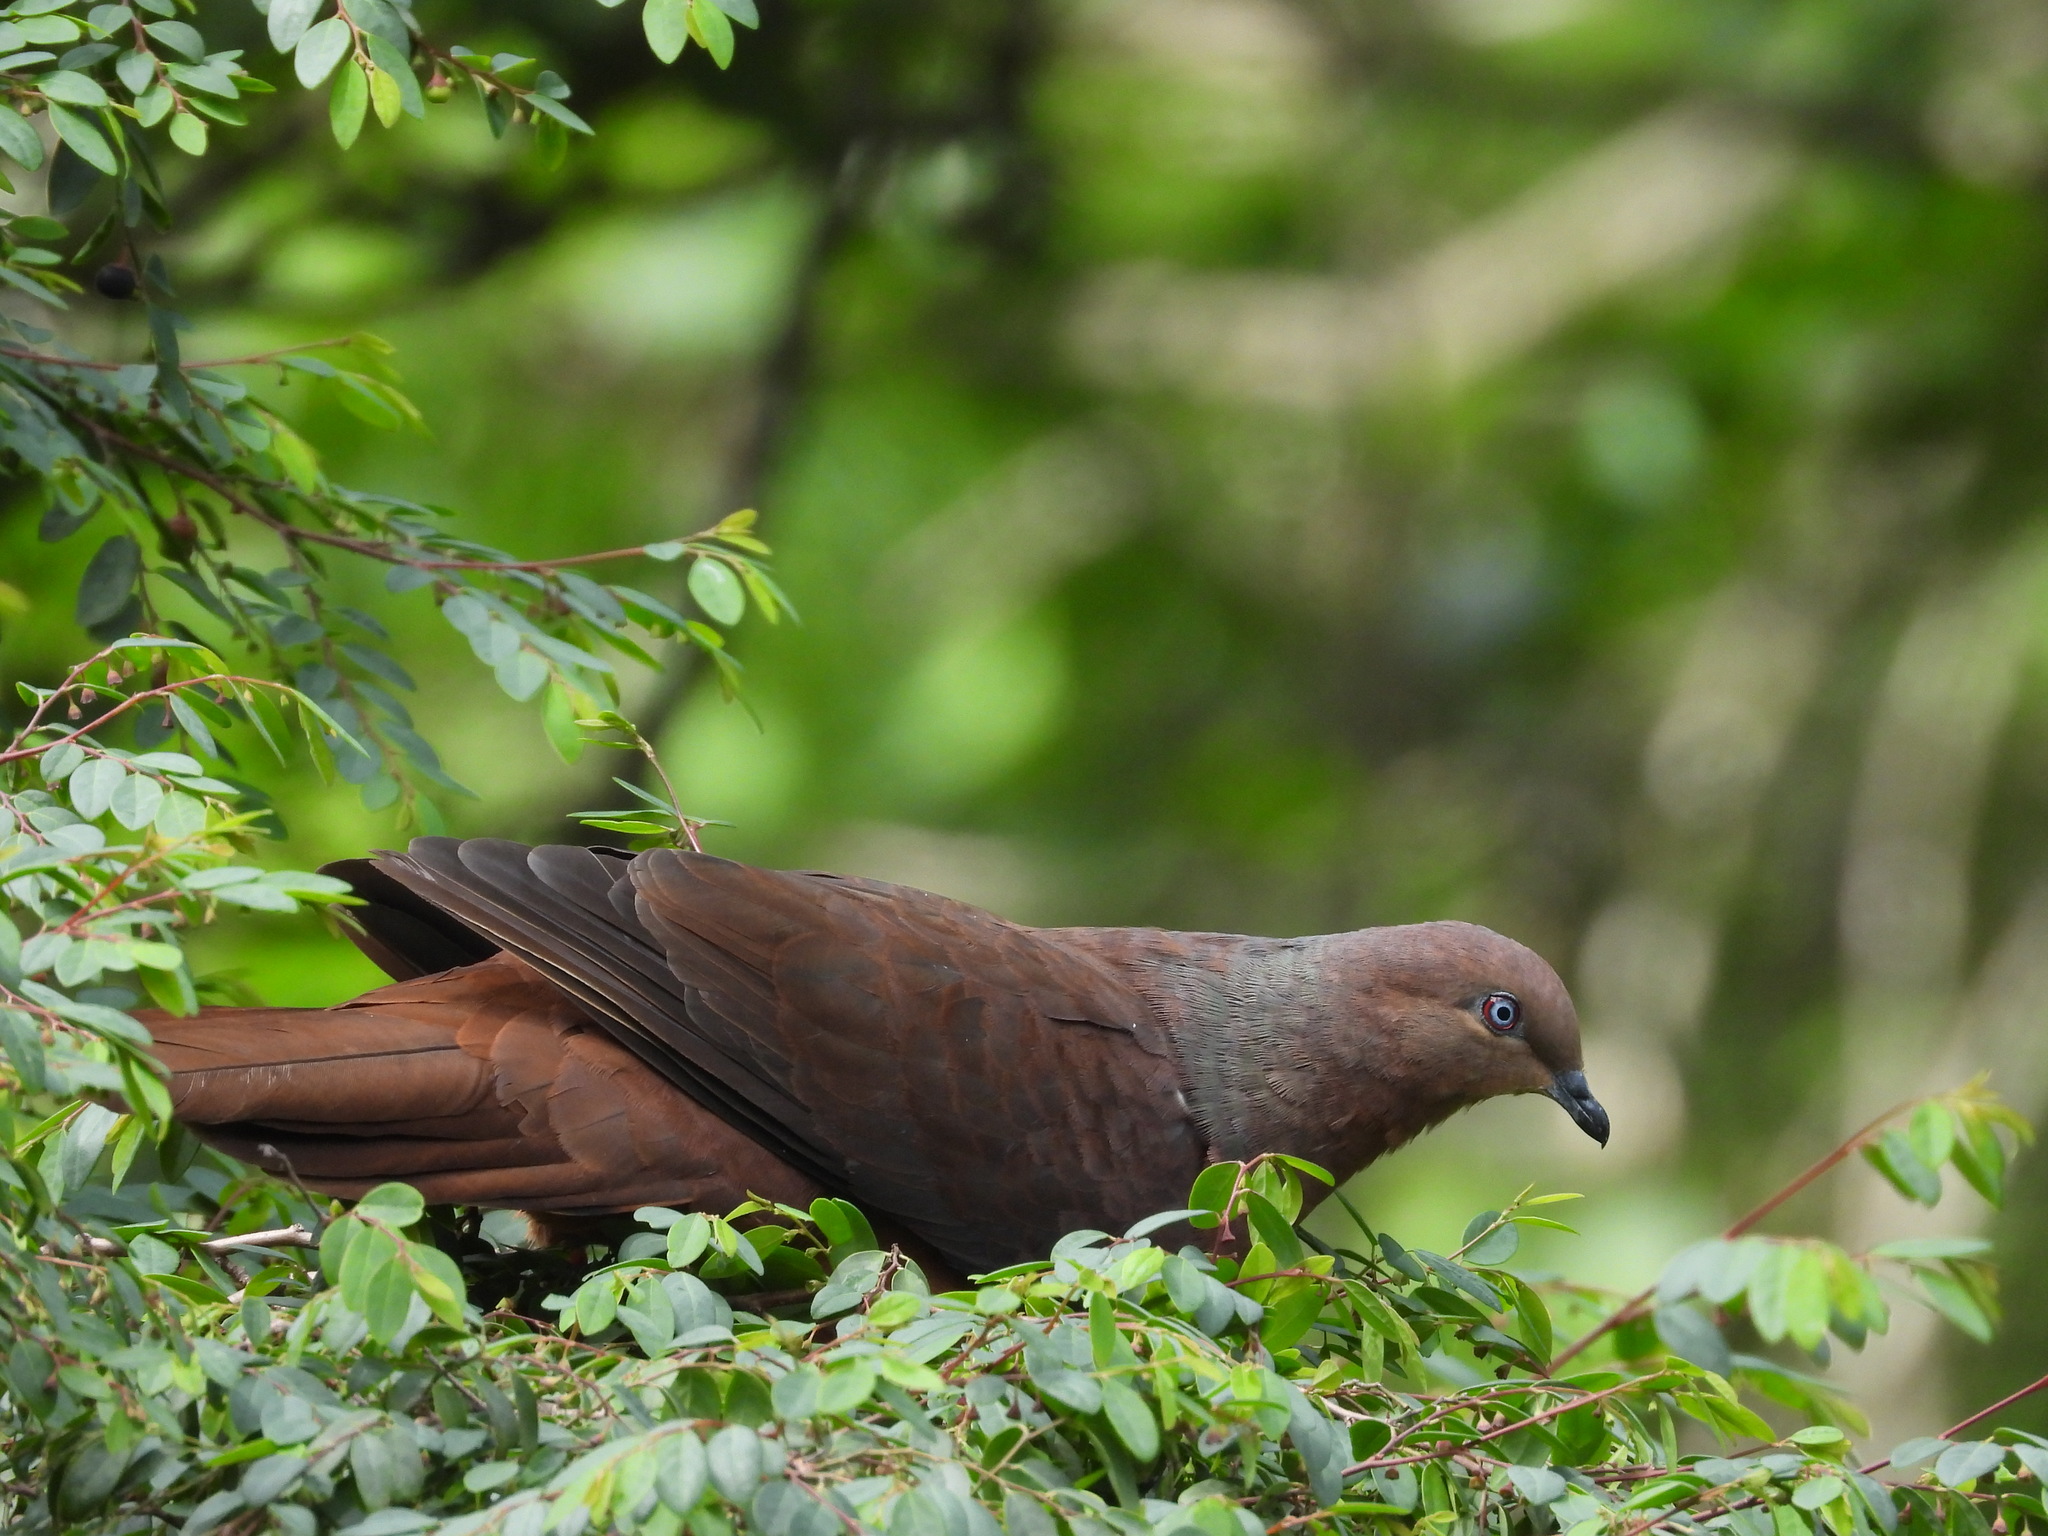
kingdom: Animalia
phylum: Chordata
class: Aves
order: Columbiformes
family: Columbidae
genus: Macropygia
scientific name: Macropygia phasianella
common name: Brown cuckoo-dove
